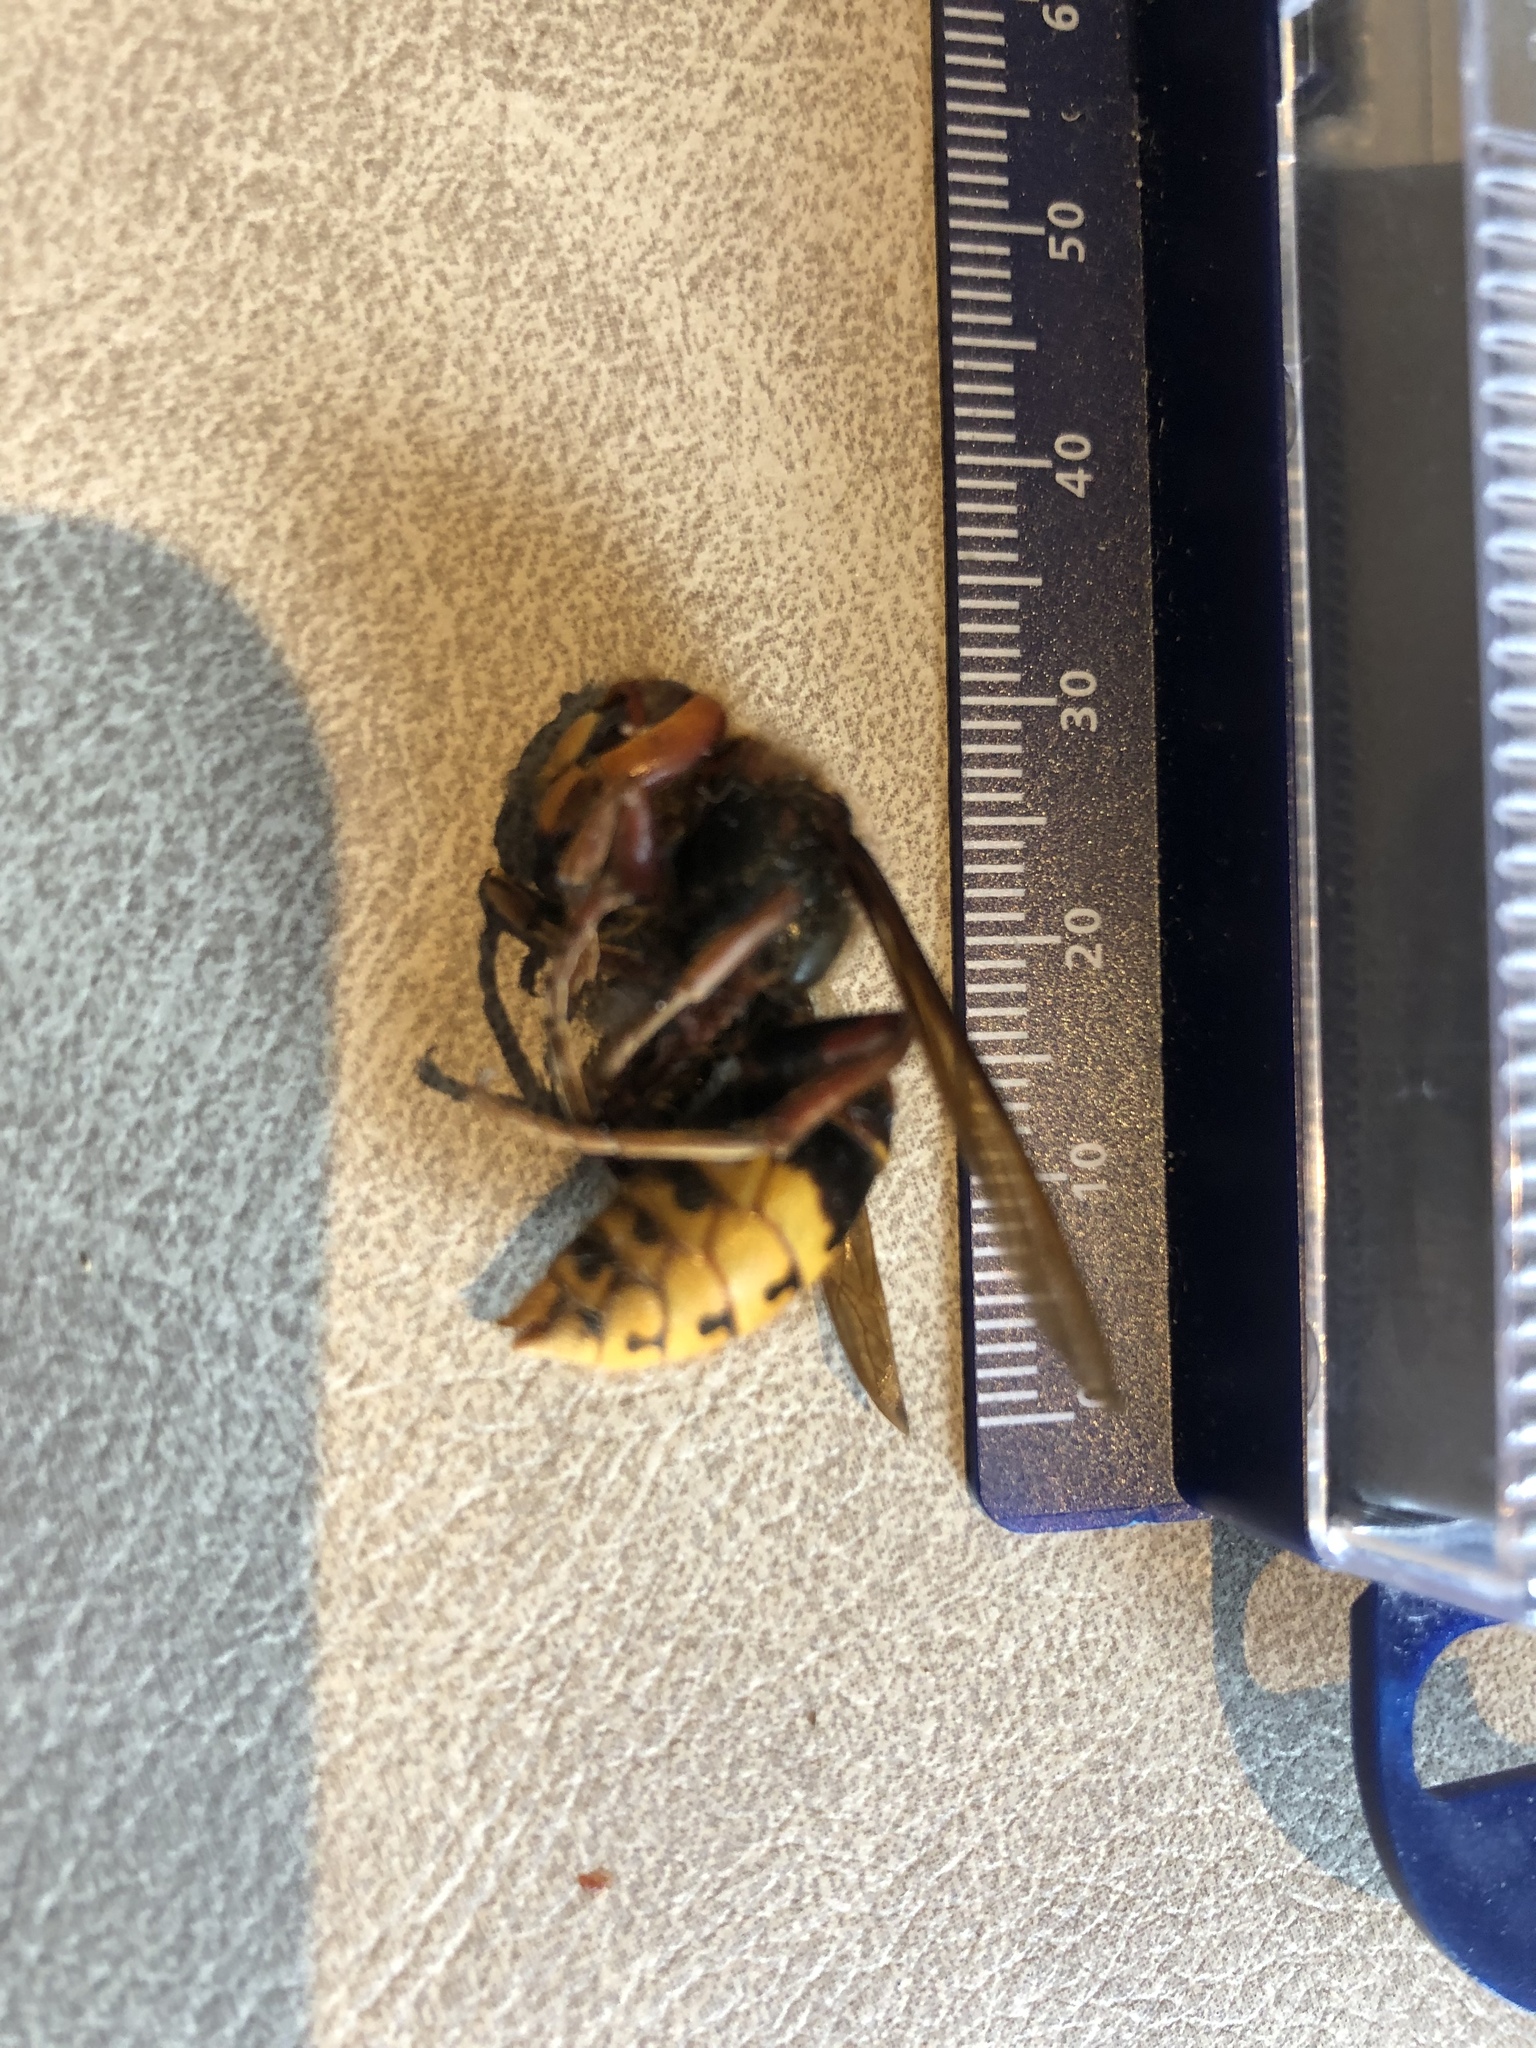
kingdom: Animalia
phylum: Arthropoda
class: Insecta
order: Hymenoptera
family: Vespidae
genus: Vespa
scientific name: Vespa crabro
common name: Hornet
